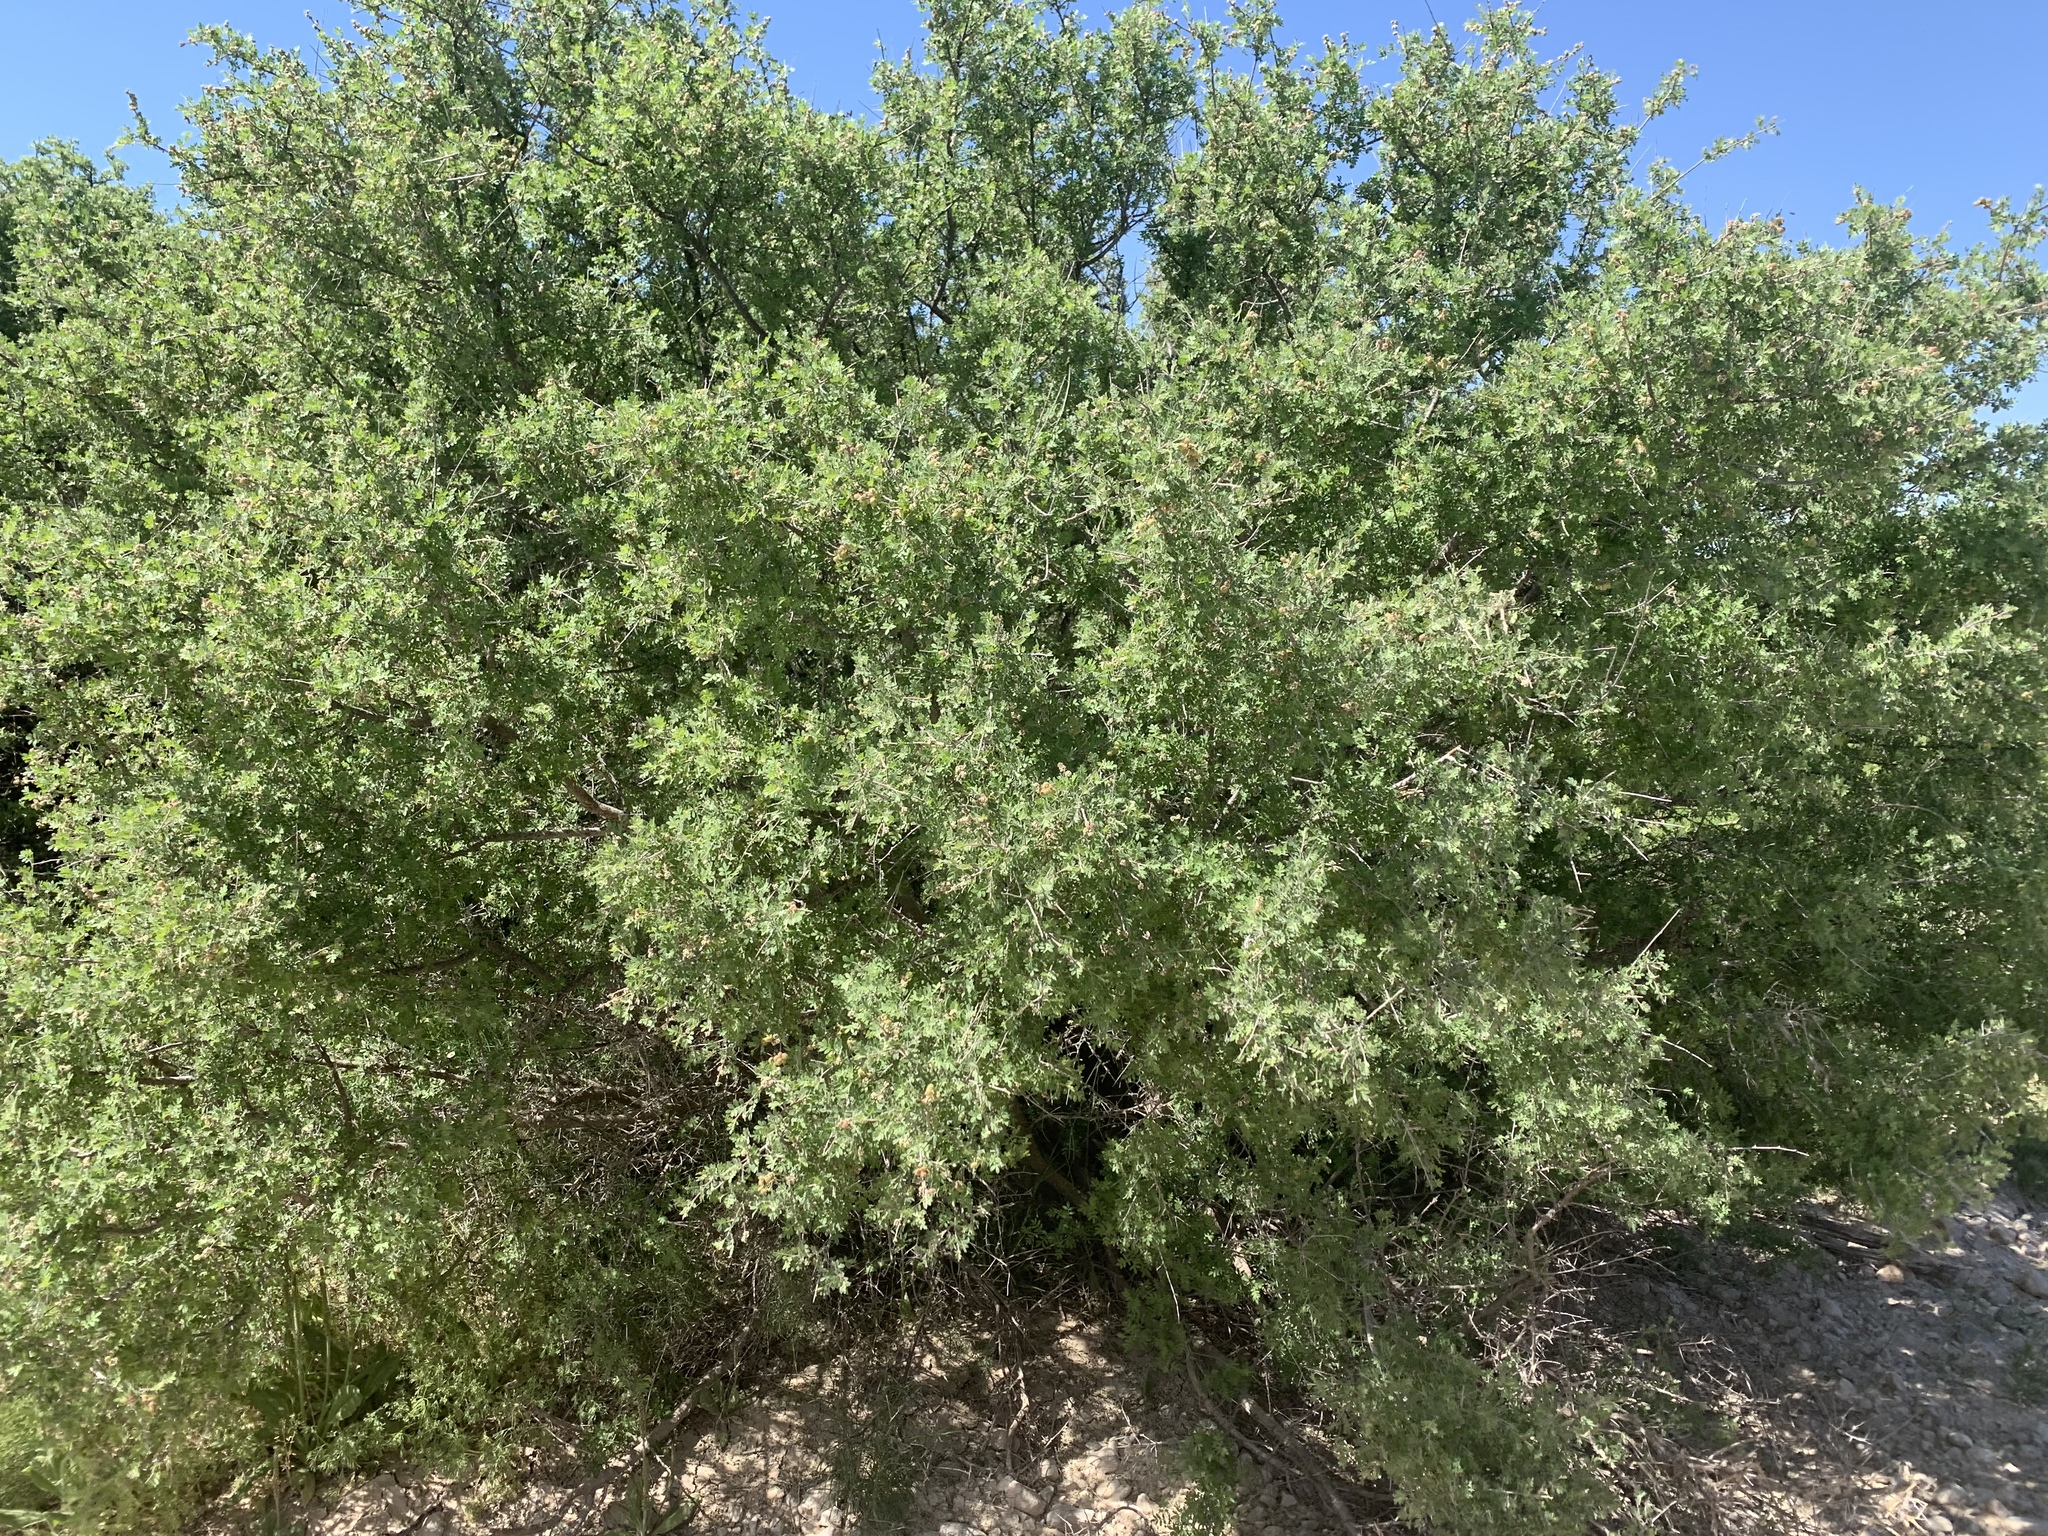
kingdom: Plantae
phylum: Tracheophyta
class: Magnoliopsida
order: Sapindales
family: Anacardiaceae
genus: Rhus
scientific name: Rhus microphylla
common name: Desert sumac
